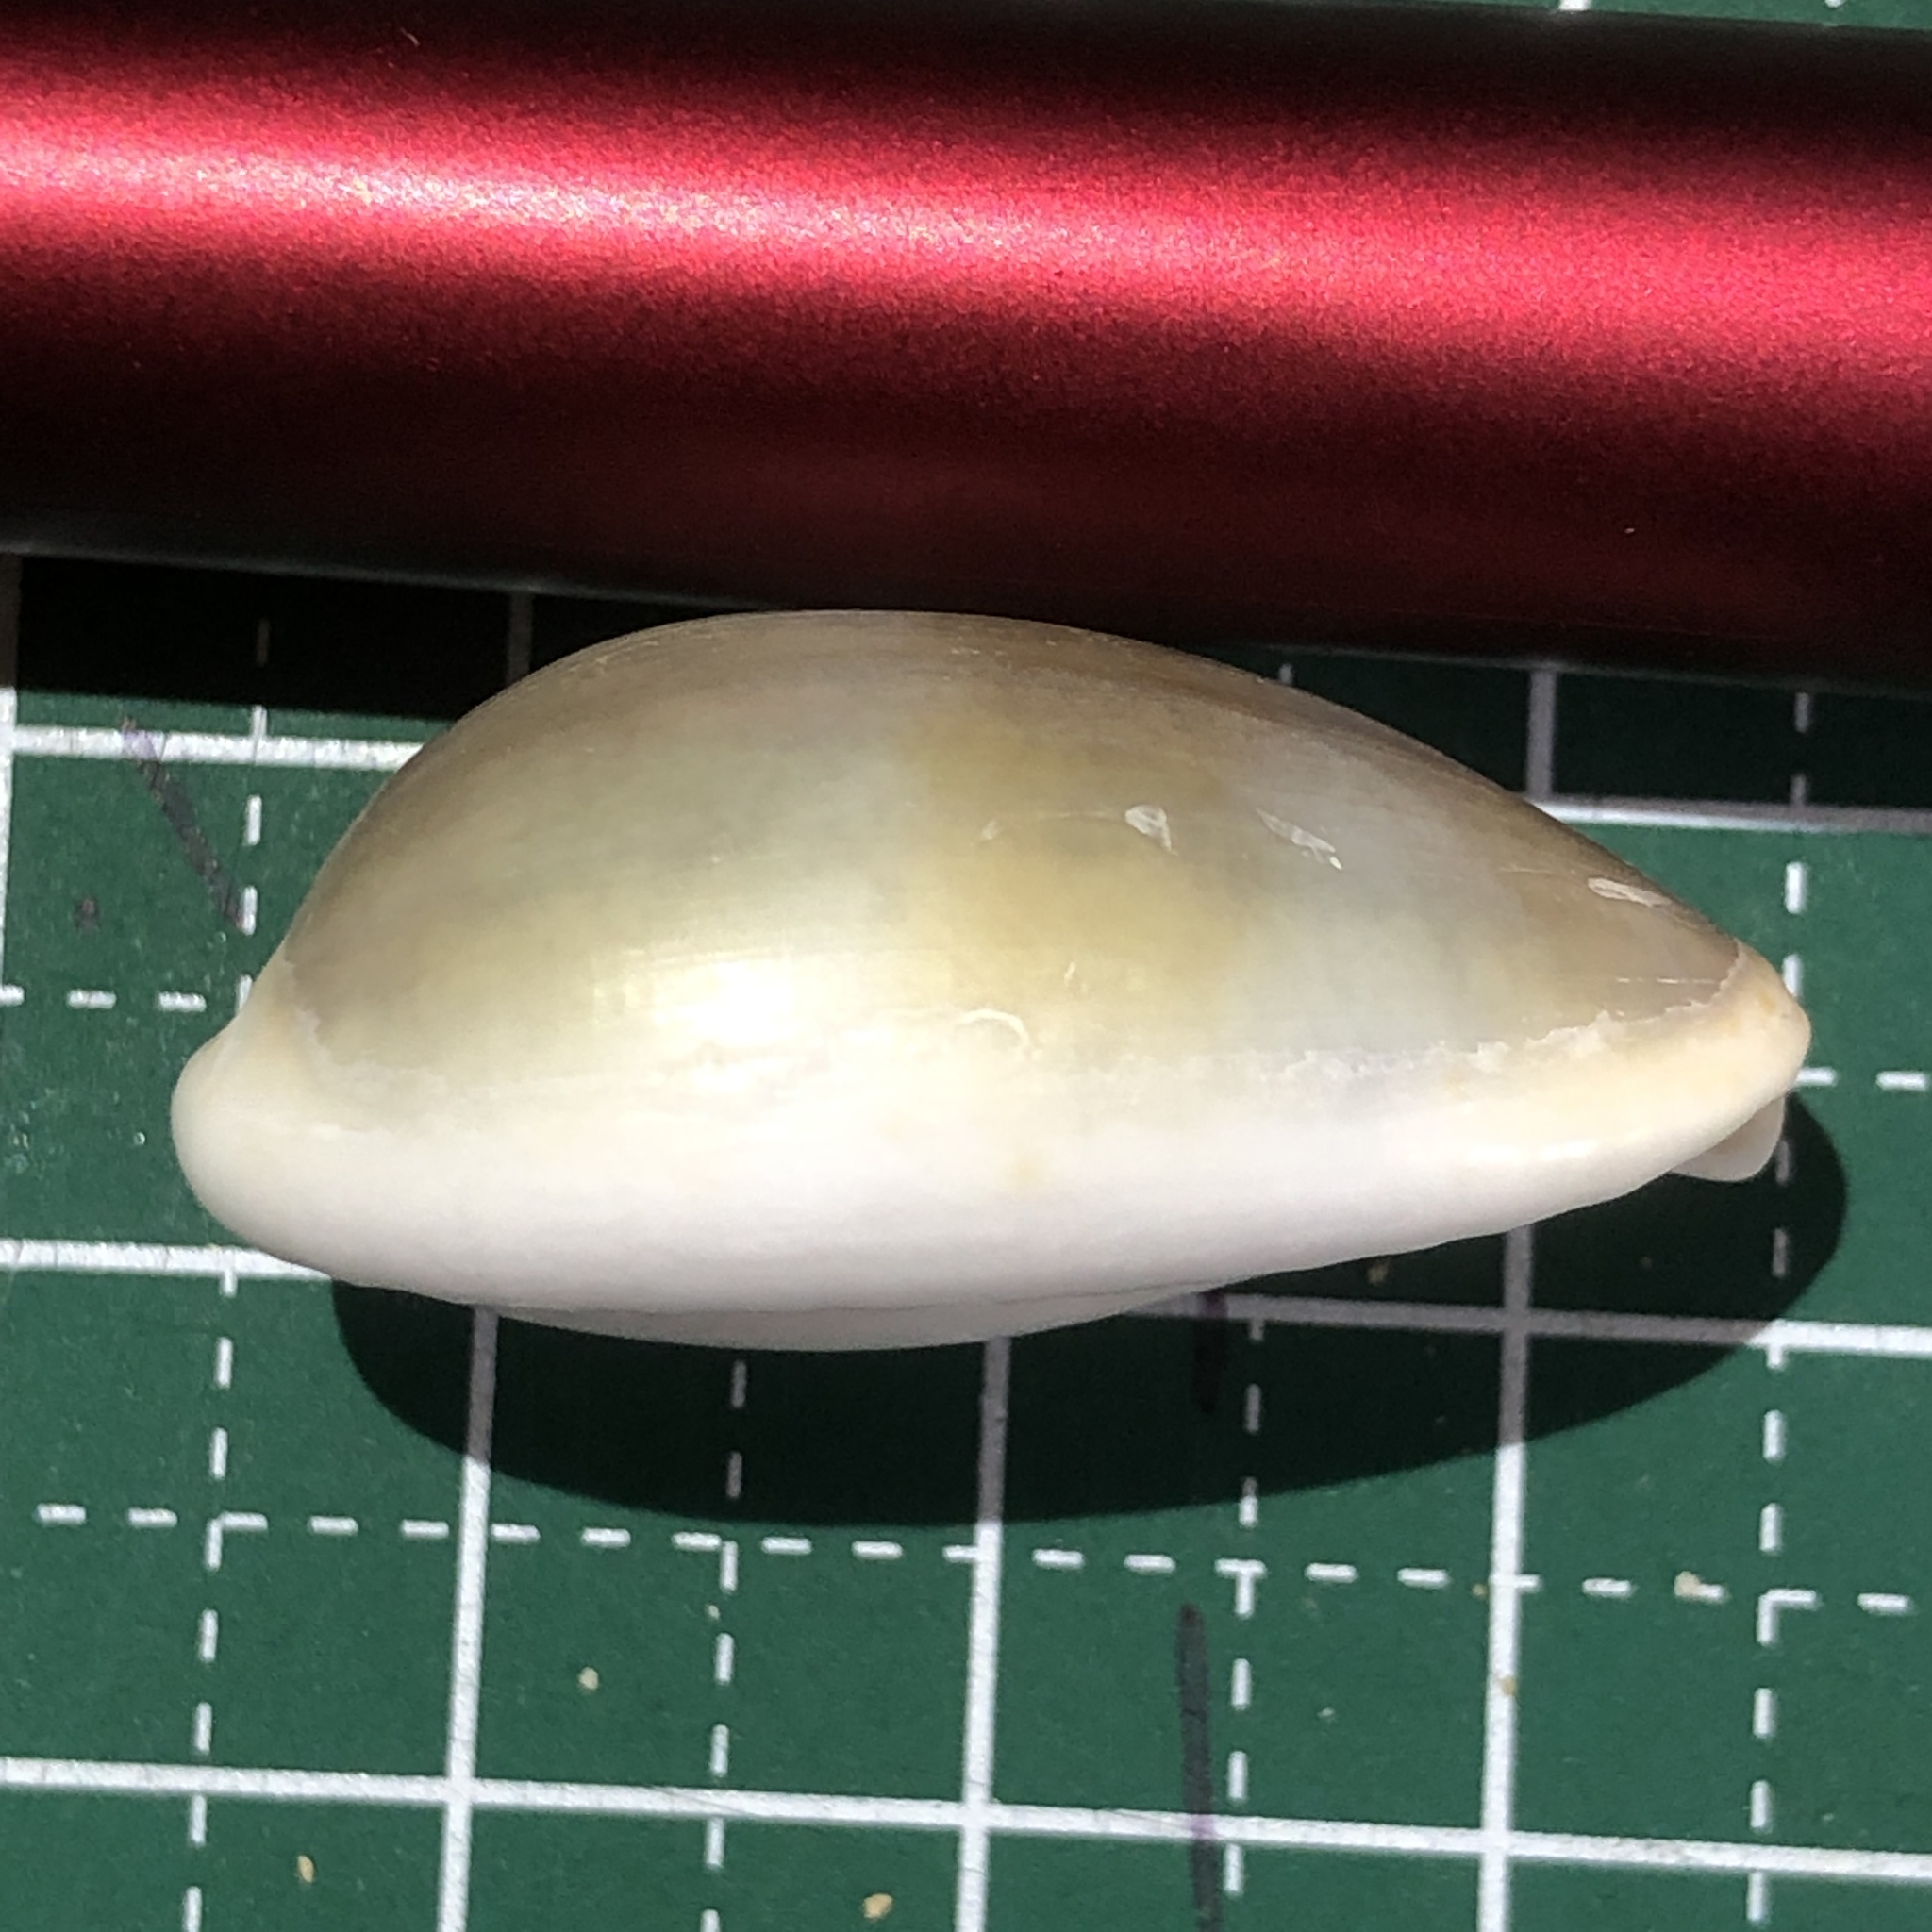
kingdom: Animalia
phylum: Mollusca
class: Gastropoda
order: Littorinimorpha
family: Cypraeidae
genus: Naria
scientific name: Naria erosa
